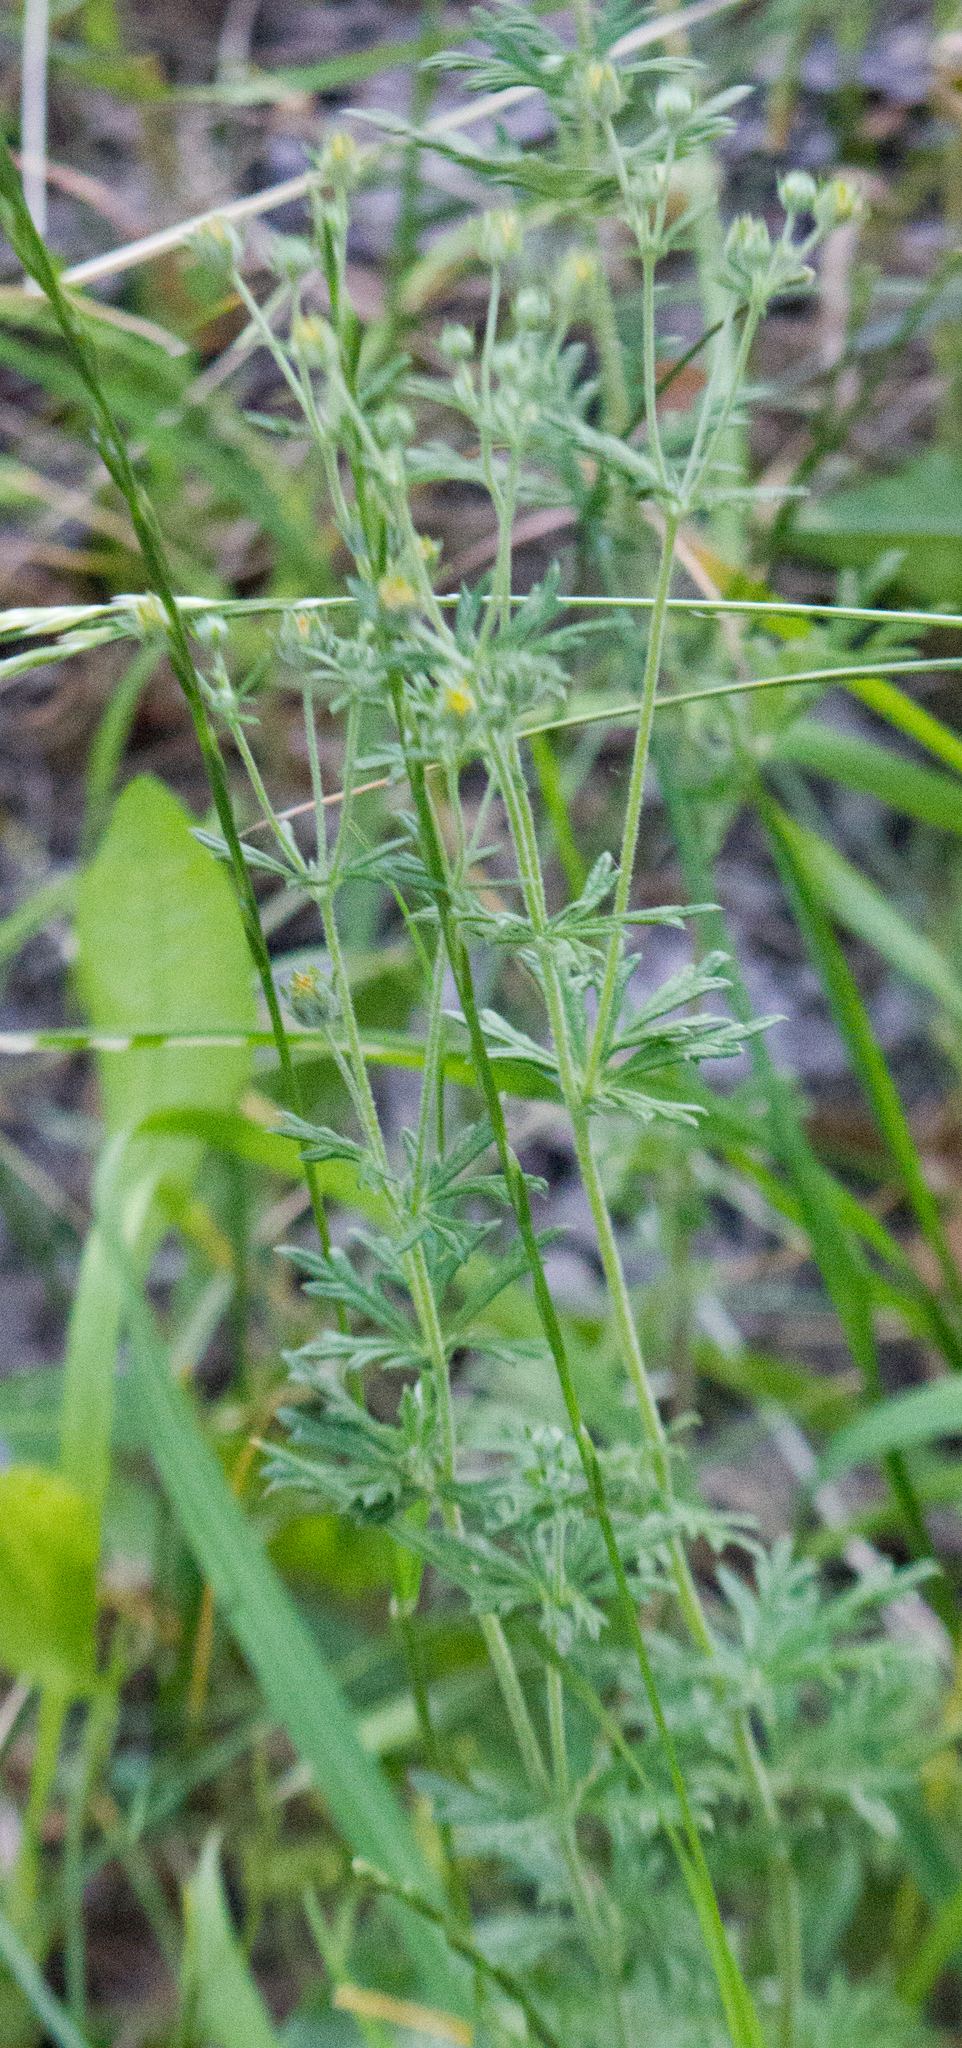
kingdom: Plantae
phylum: Tracheophyta
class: Magnoliopsida
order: Rosales
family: Rosaceae
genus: Potentilla
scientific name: Potentilla argentea
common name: Hoary cinquefoil
